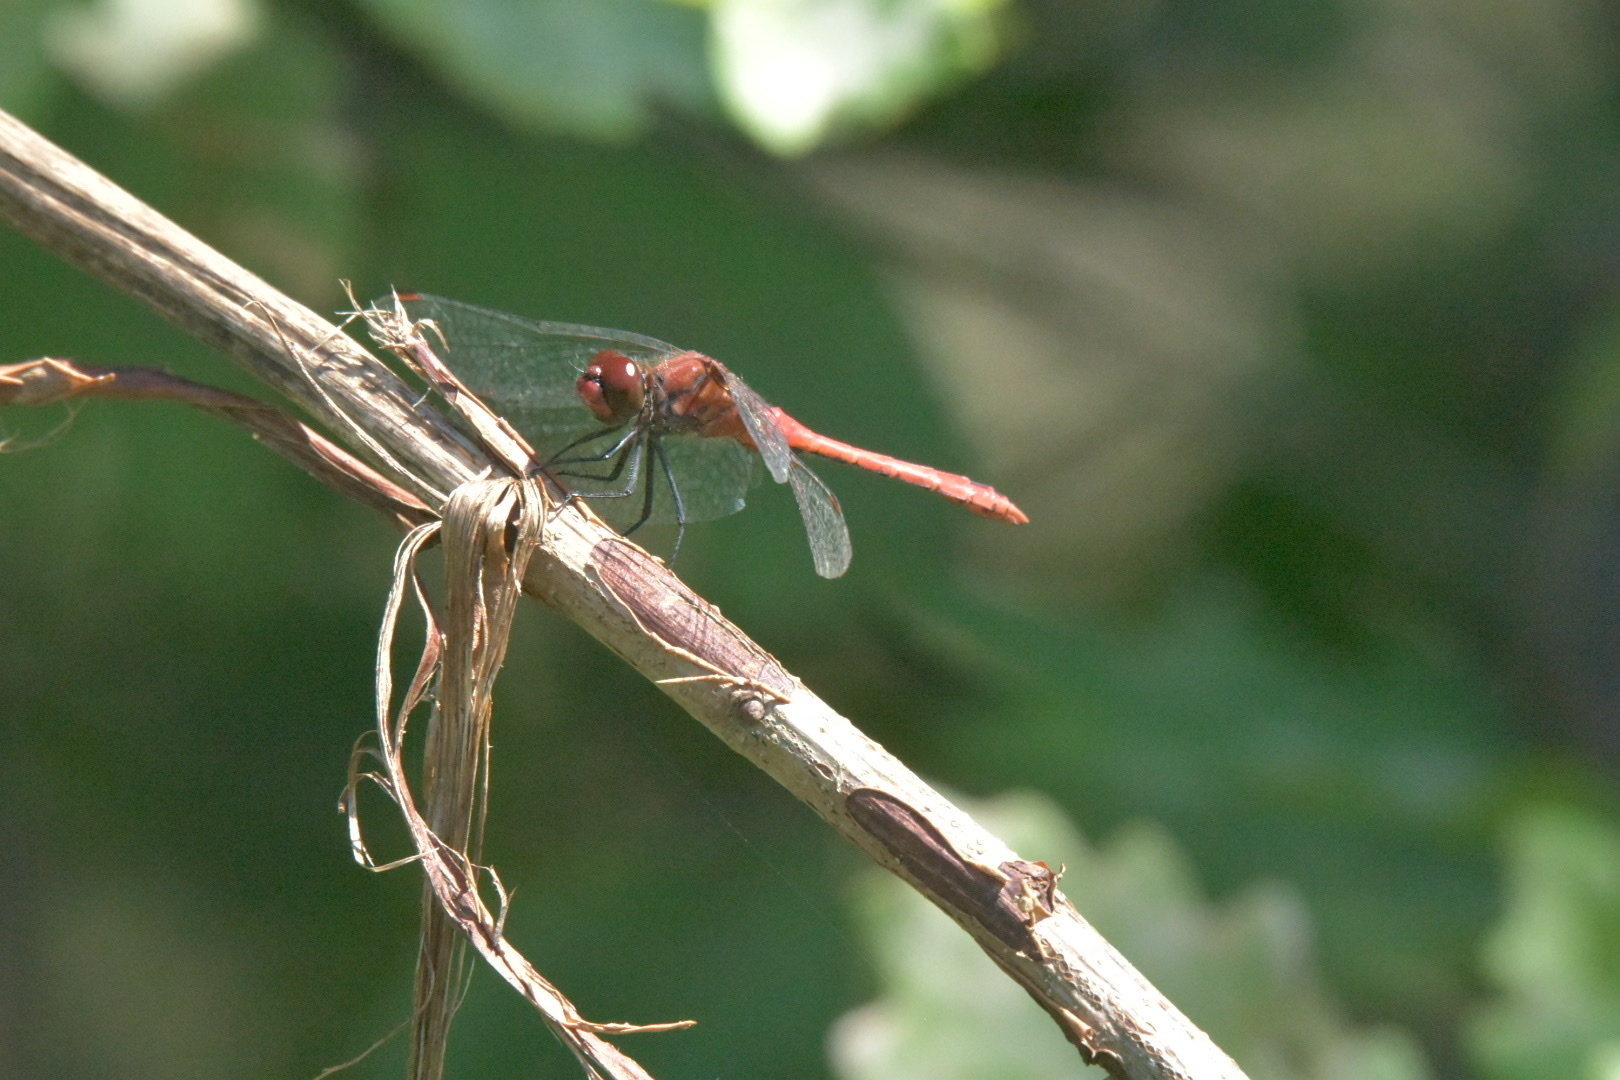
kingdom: Animalia
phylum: Arthropoda
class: Insecta
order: Odonata
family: Libellulidae
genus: Sympetrum
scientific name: Sympetrum sanguineum
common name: Ruddy darter
